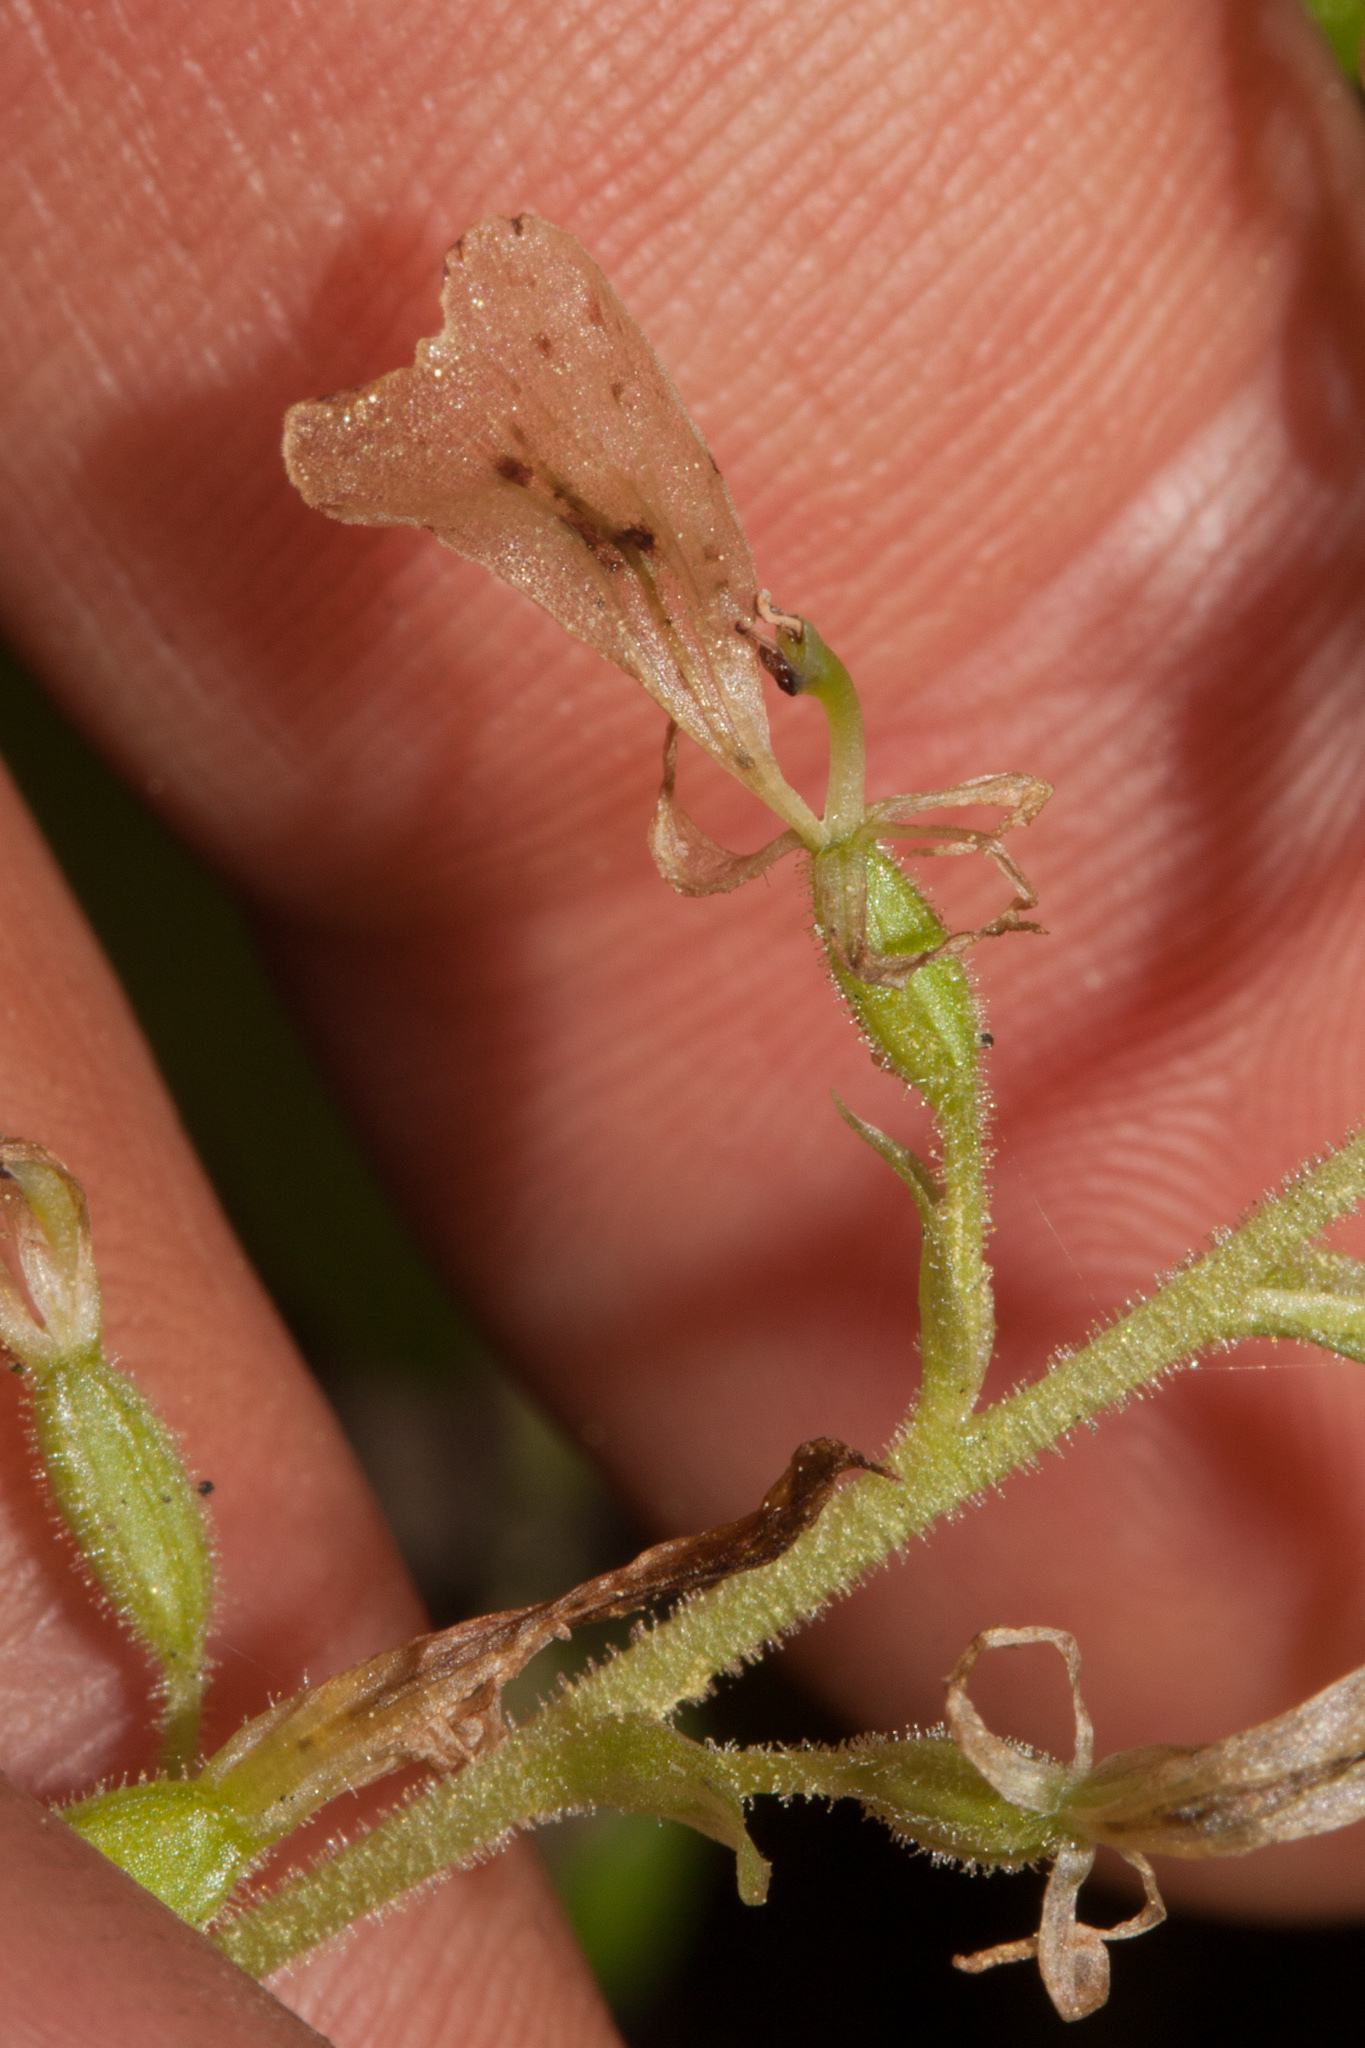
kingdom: Plantae
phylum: Tracheophyta
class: Liliopsida
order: Asparagales
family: Orchidaceae
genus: Neottia
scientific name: Neottia convallarioides
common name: Broadleaf twayblade
